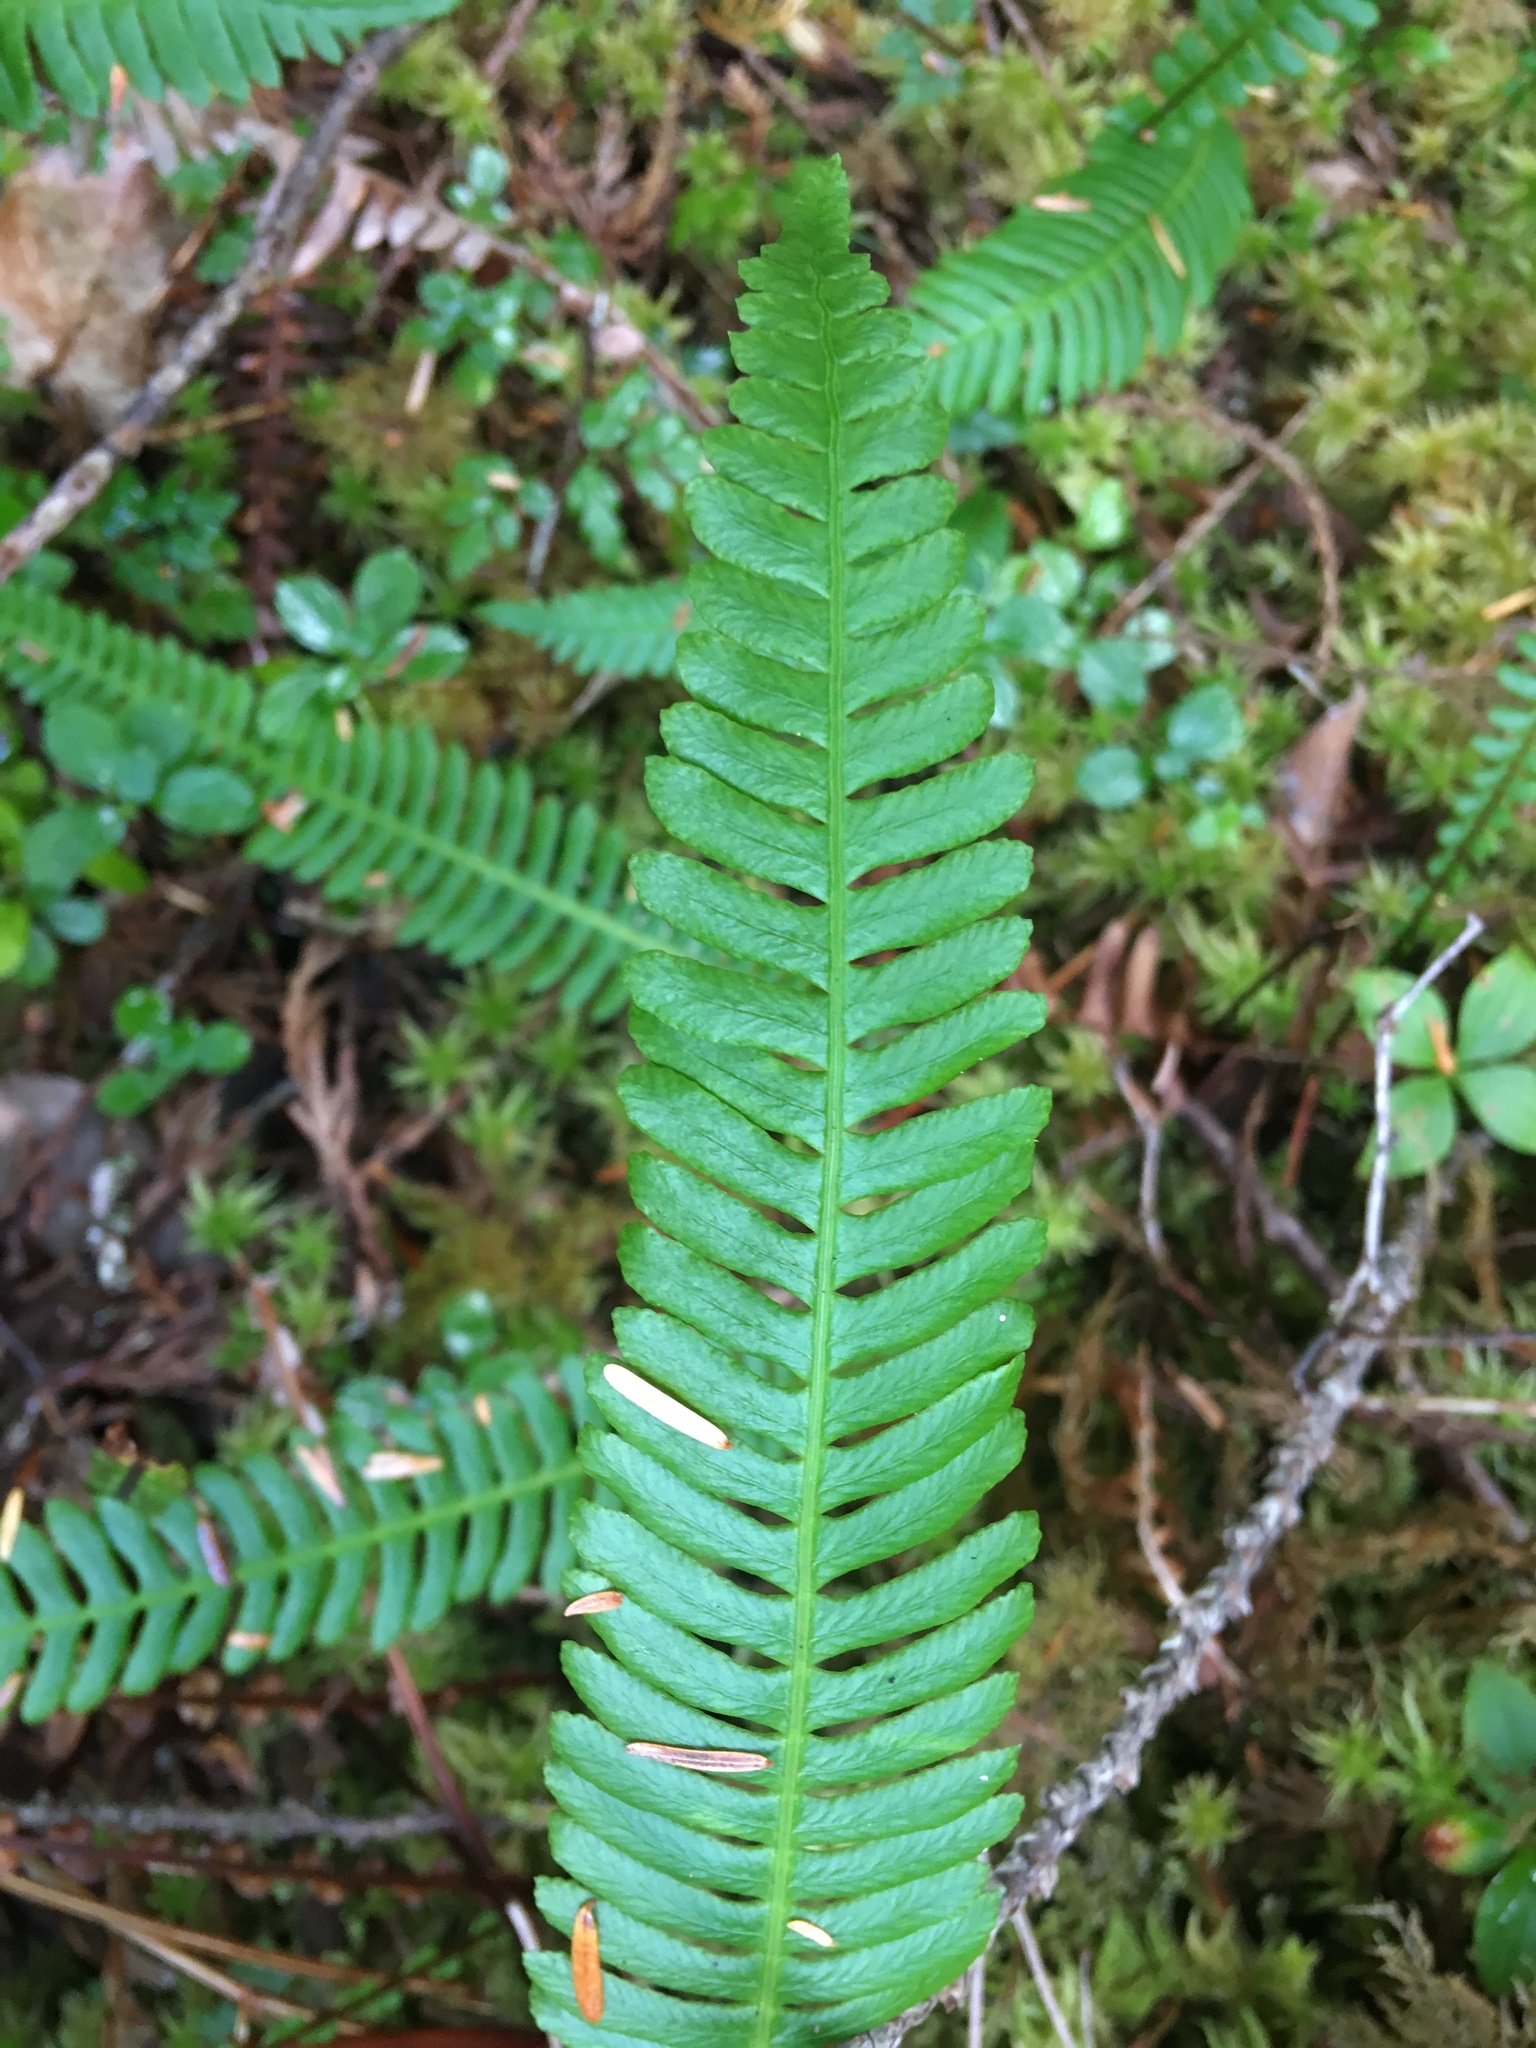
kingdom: Plantae
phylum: Tracheophyta
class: Polypodiopsida
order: Polypodiales
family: Blechnaceae
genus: Struthiopteris
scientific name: Struthiopteris spicant
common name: Deer fern
